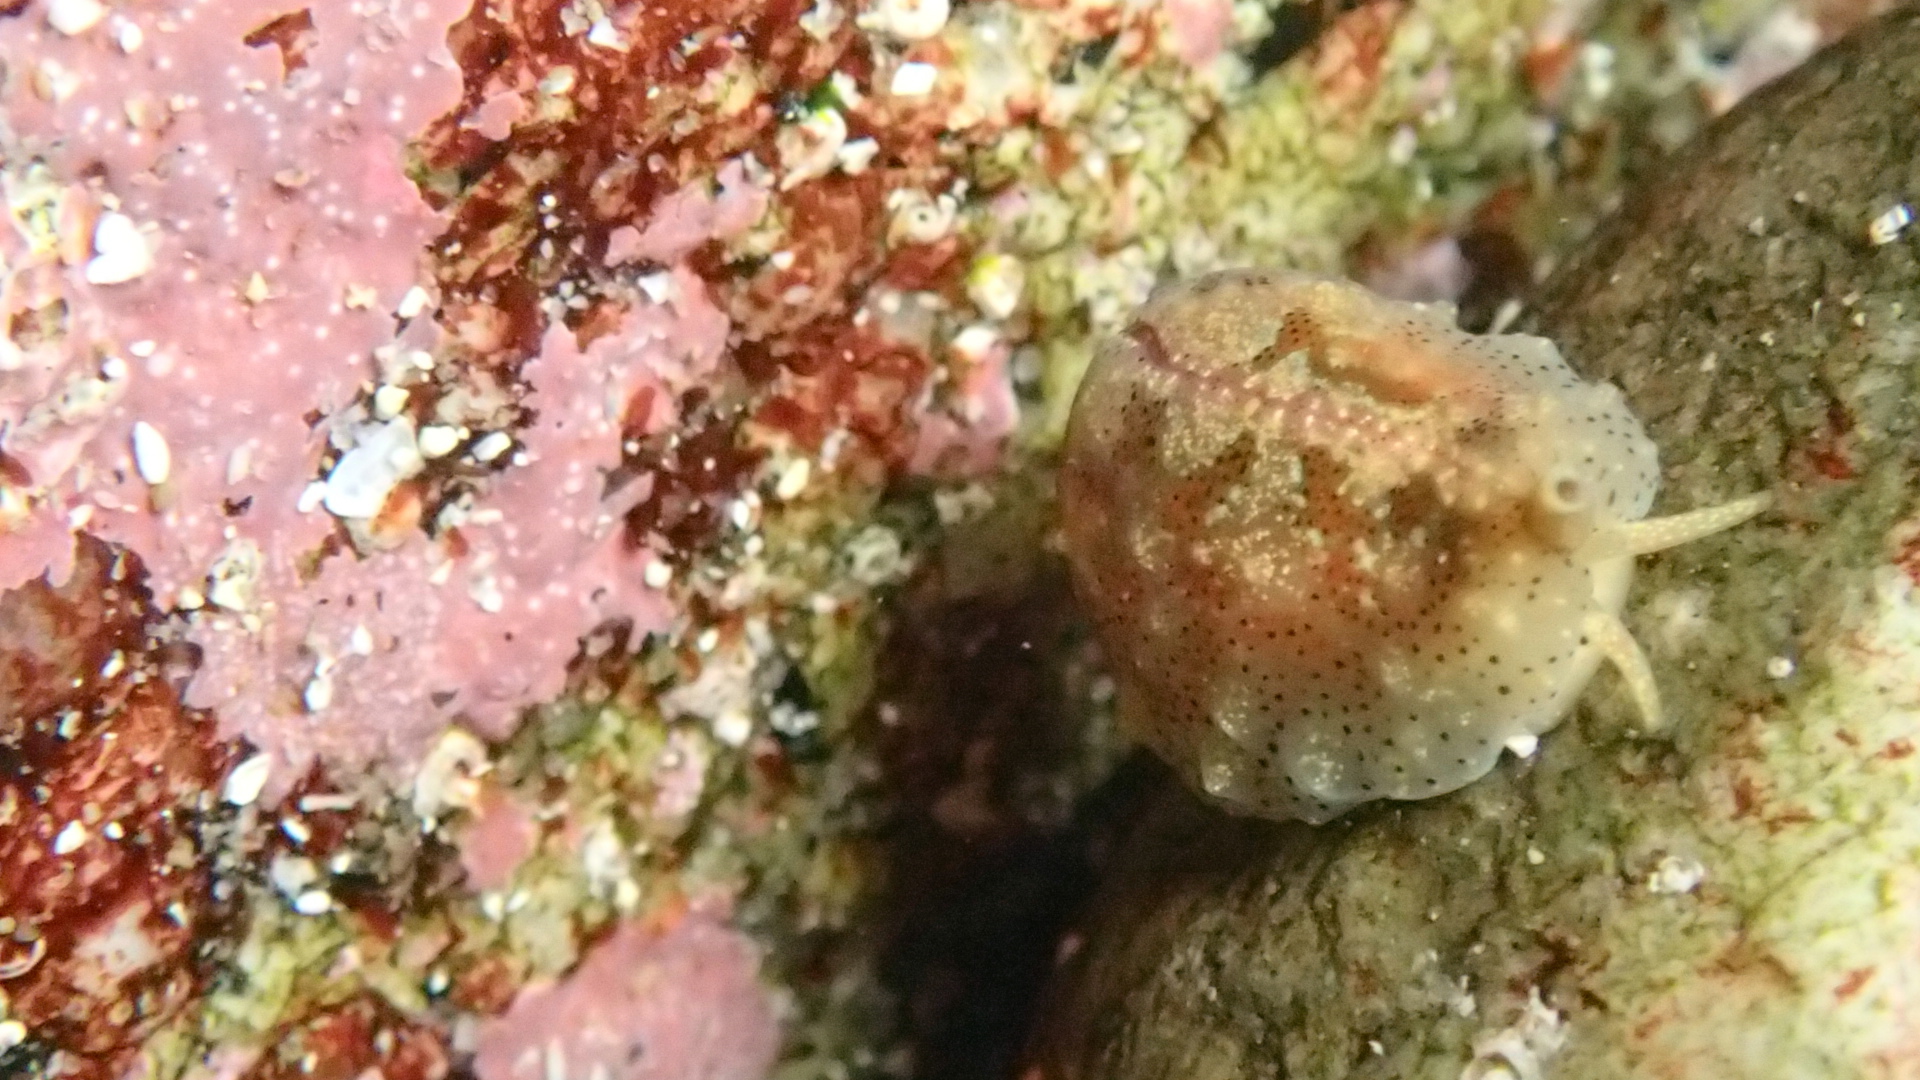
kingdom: Animalia
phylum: Mollusca
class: Gastropoda
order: Littorinimorpha
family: Eratoidae
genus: Hespererato
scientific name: Hespererato vitellina
